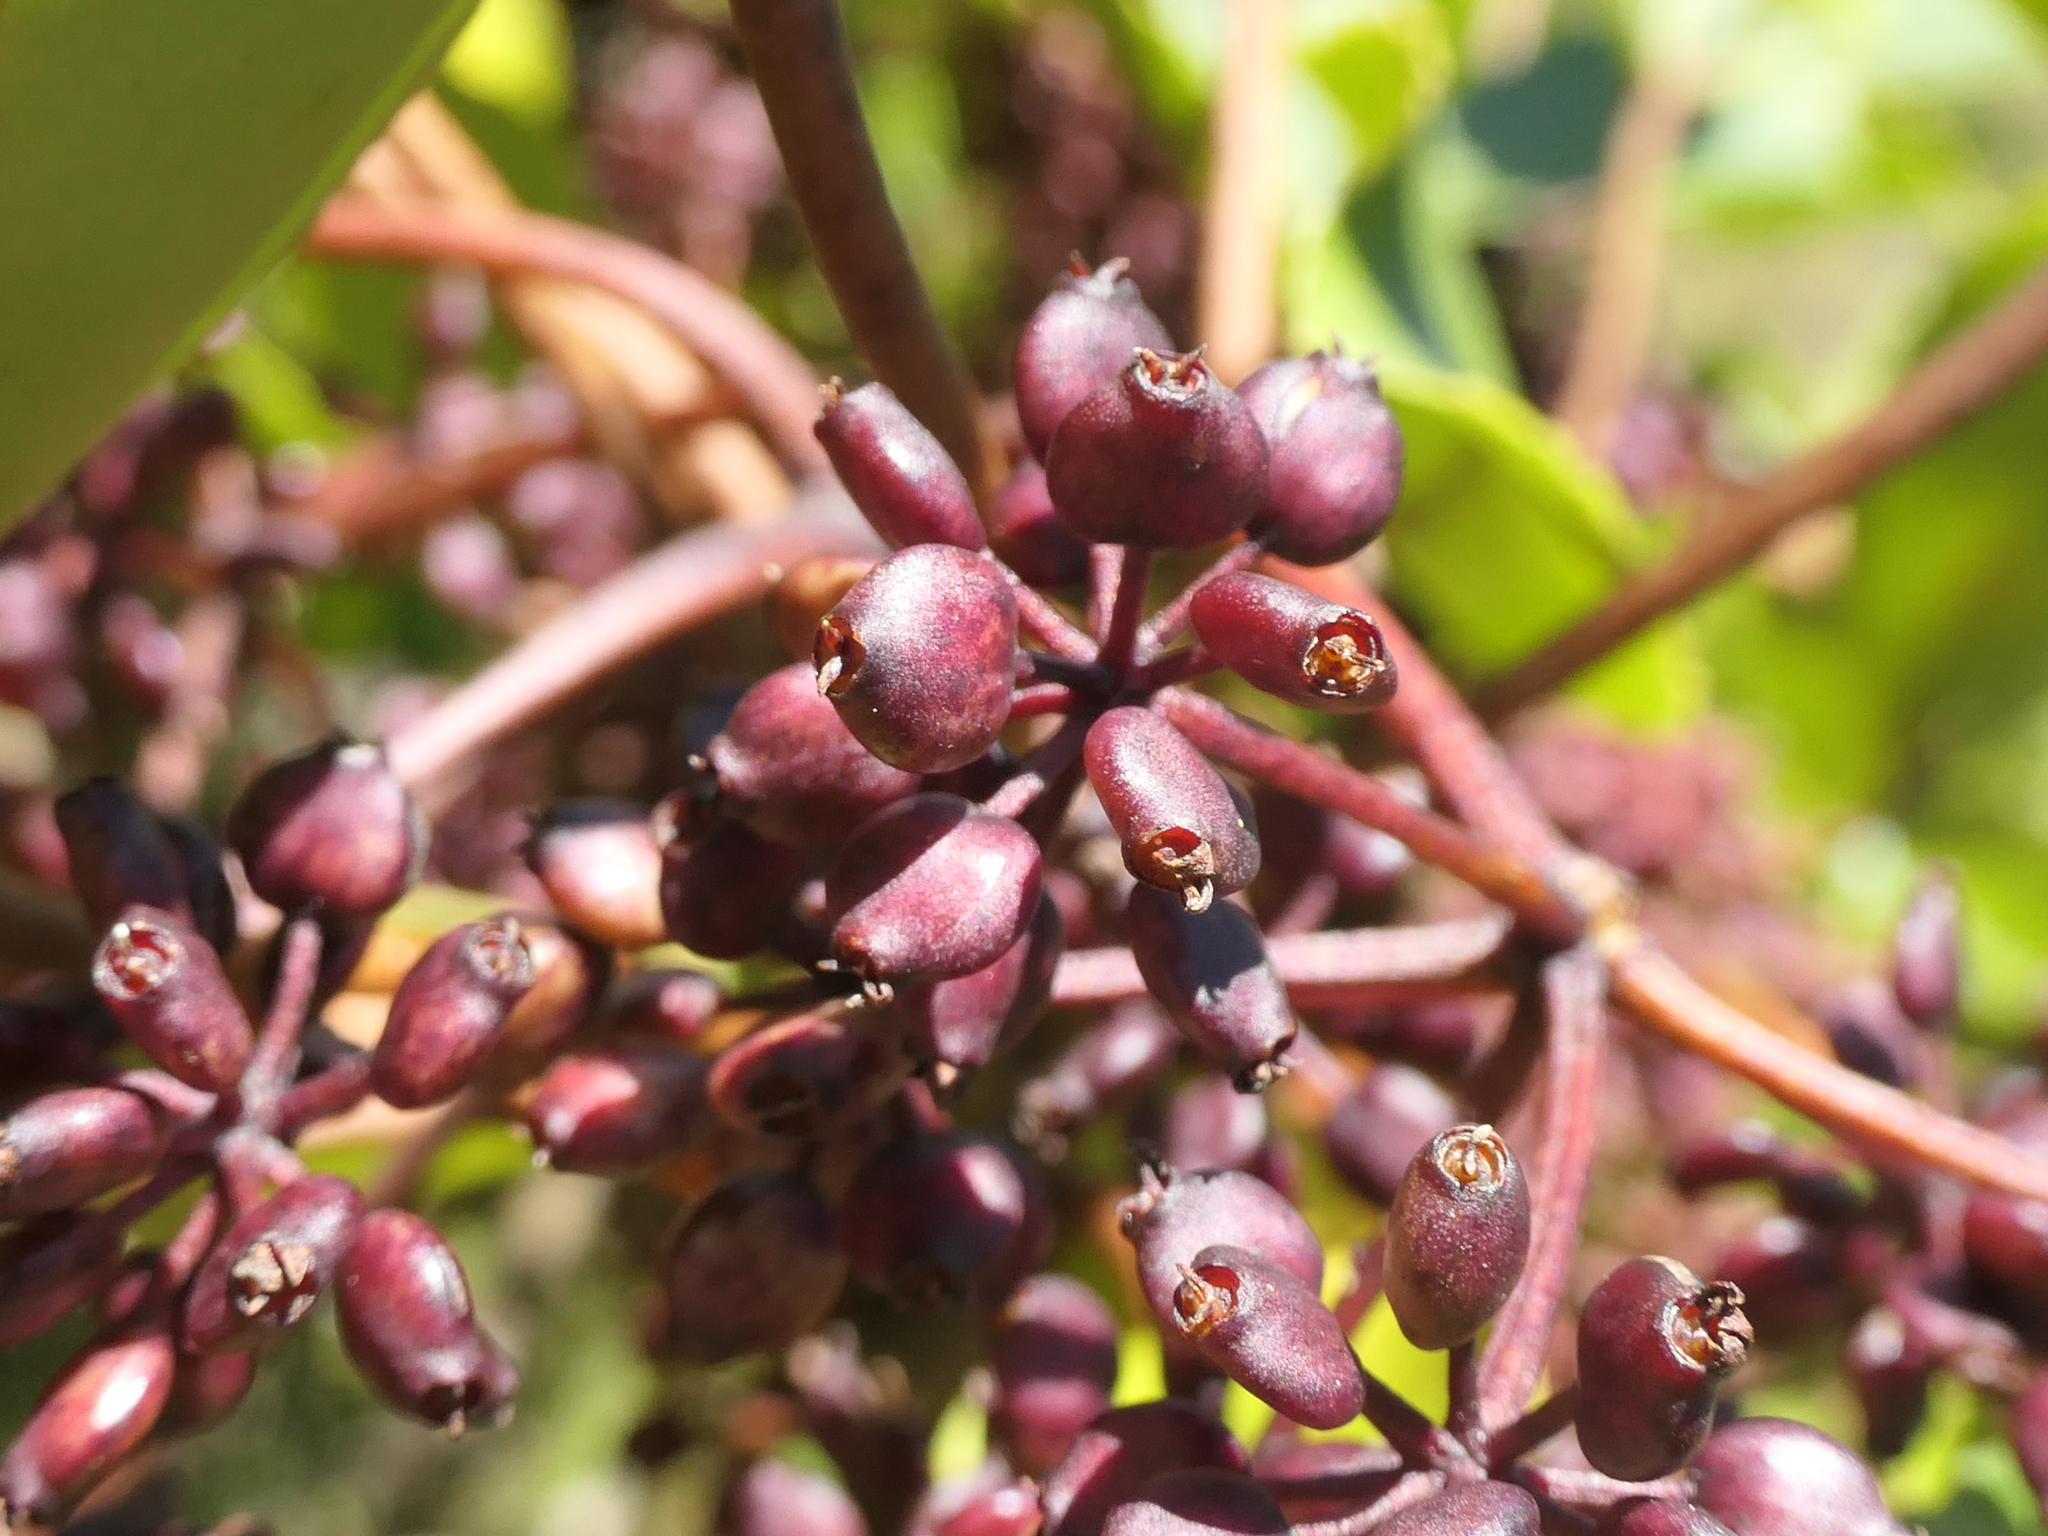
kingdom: Plantae
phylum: Tracheophyta
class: Magnoliopsida
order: Apiales
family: Araliaceae
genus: Neopanax
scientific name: Neopanax colensoi
